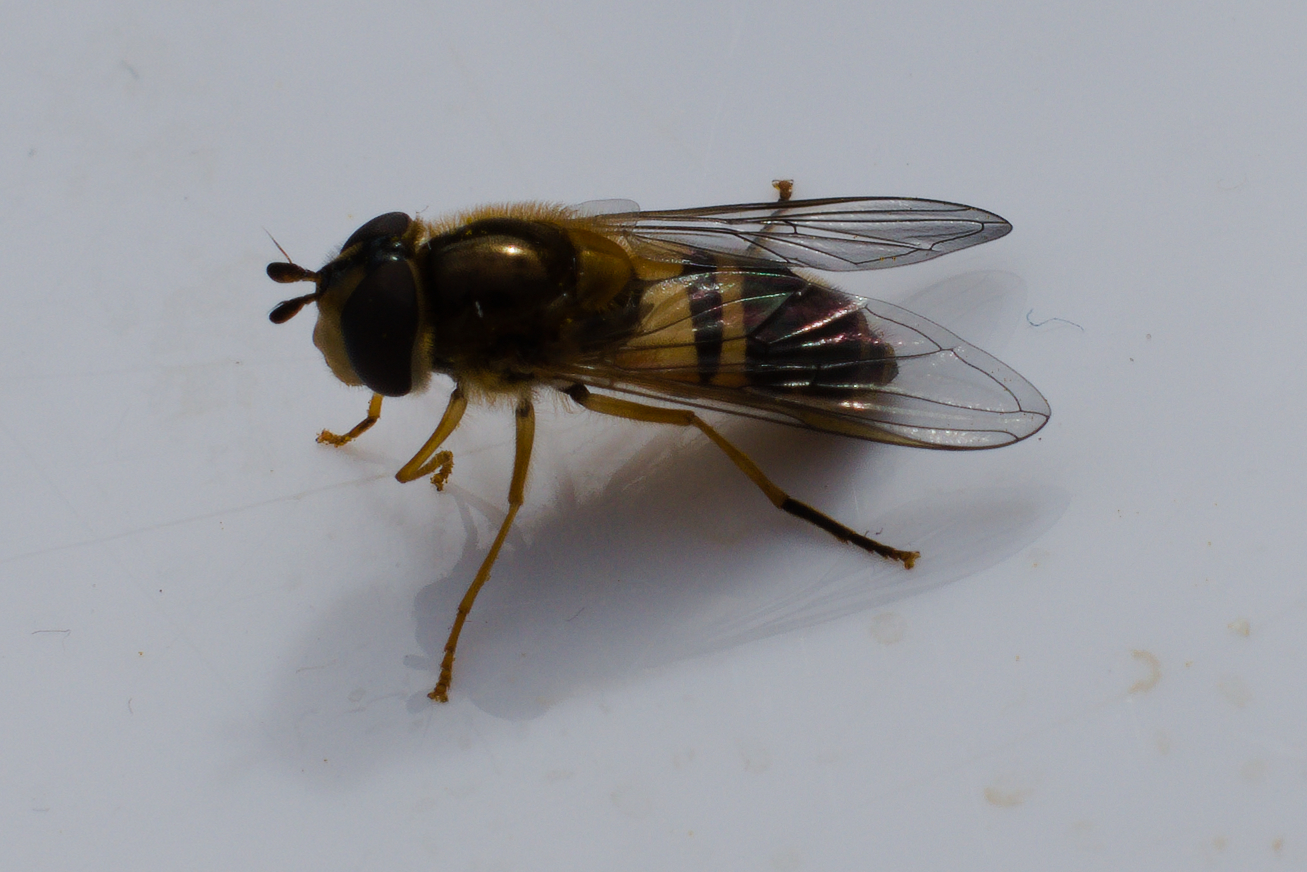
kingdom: Animalia
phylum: Arthropoda
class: Insecta
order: Diptera
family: Syrphidae
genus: Epistrophe
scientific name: Epistrophe eligans
